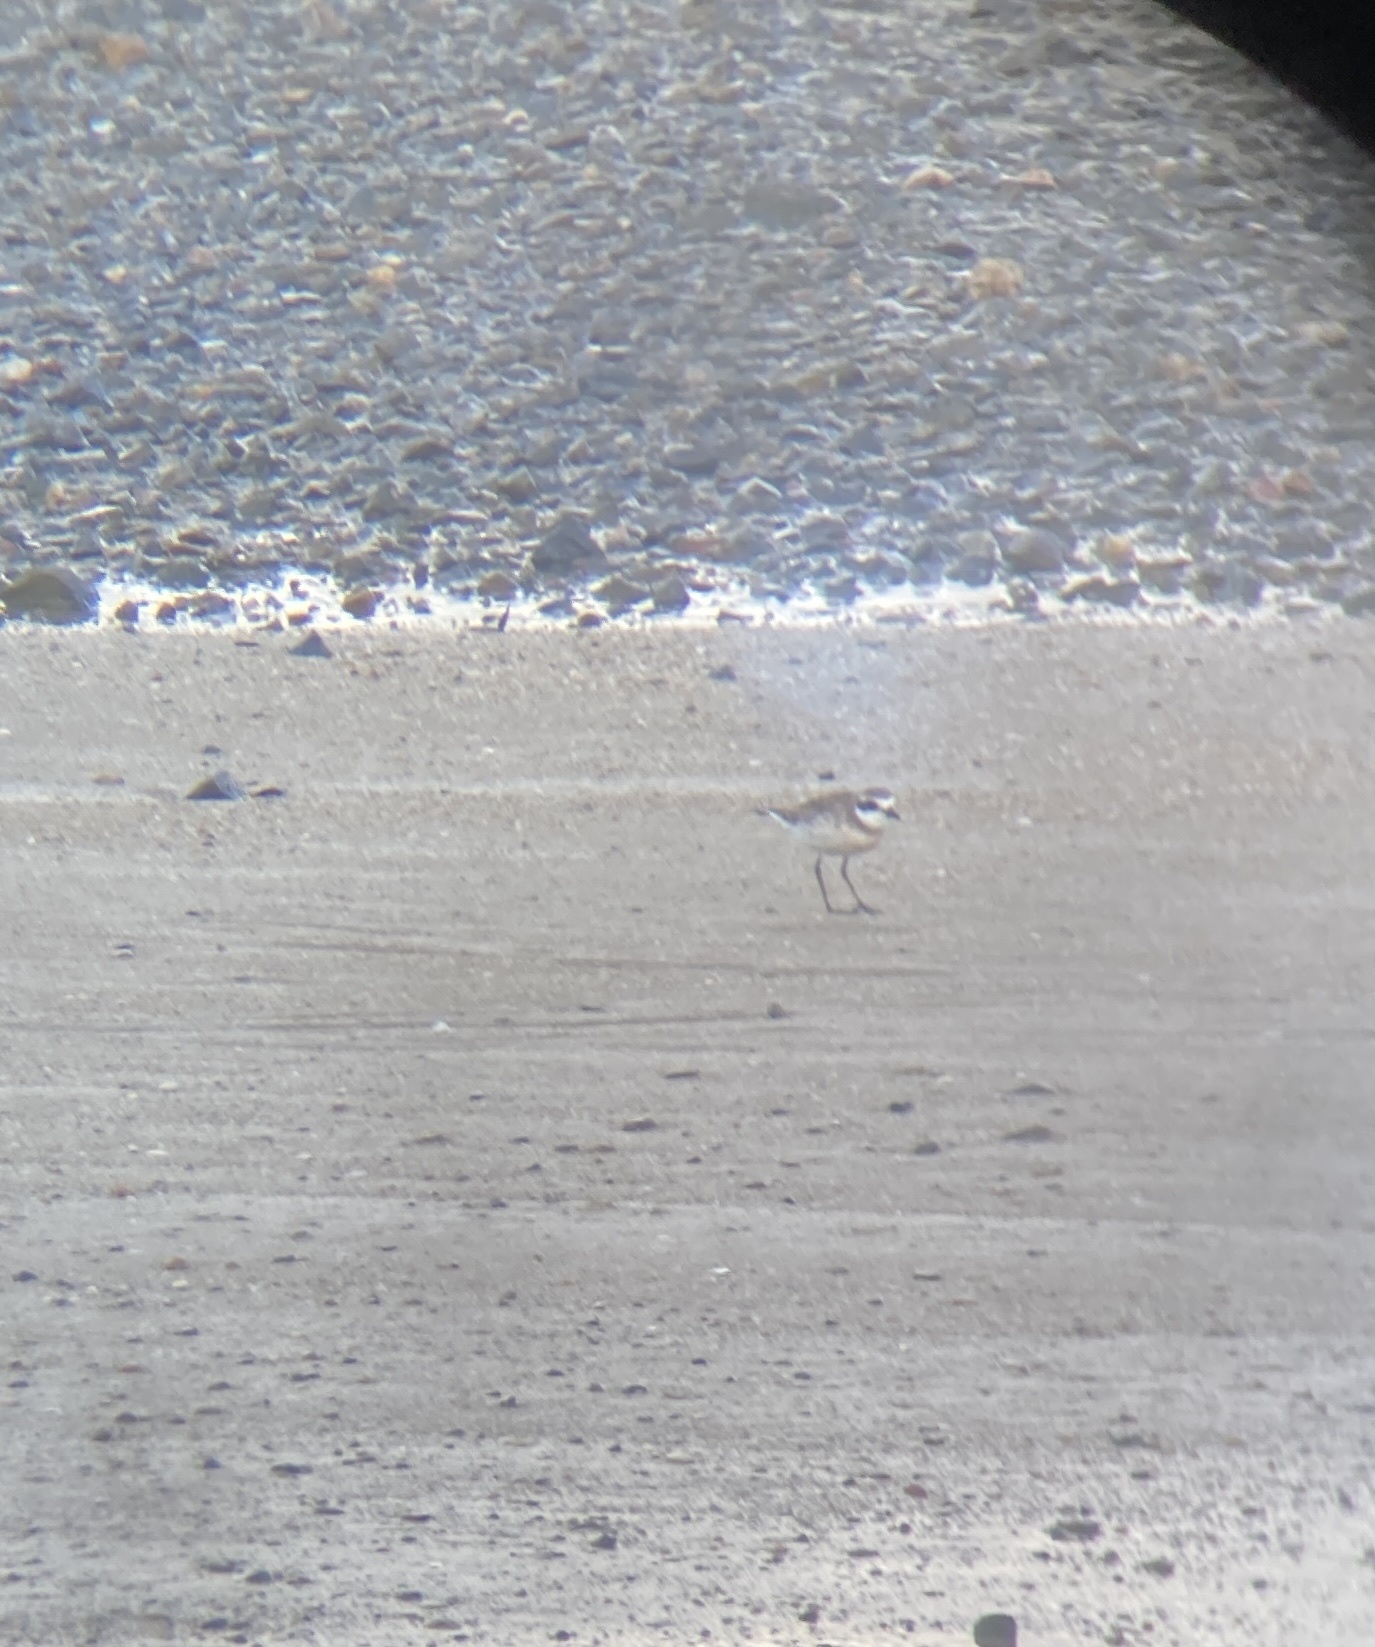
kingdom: Animalia
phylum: Chordata
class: Aves
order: Charadriiformes
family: Charadriidae
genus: Anarhynchus
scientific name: Anarhynchus
